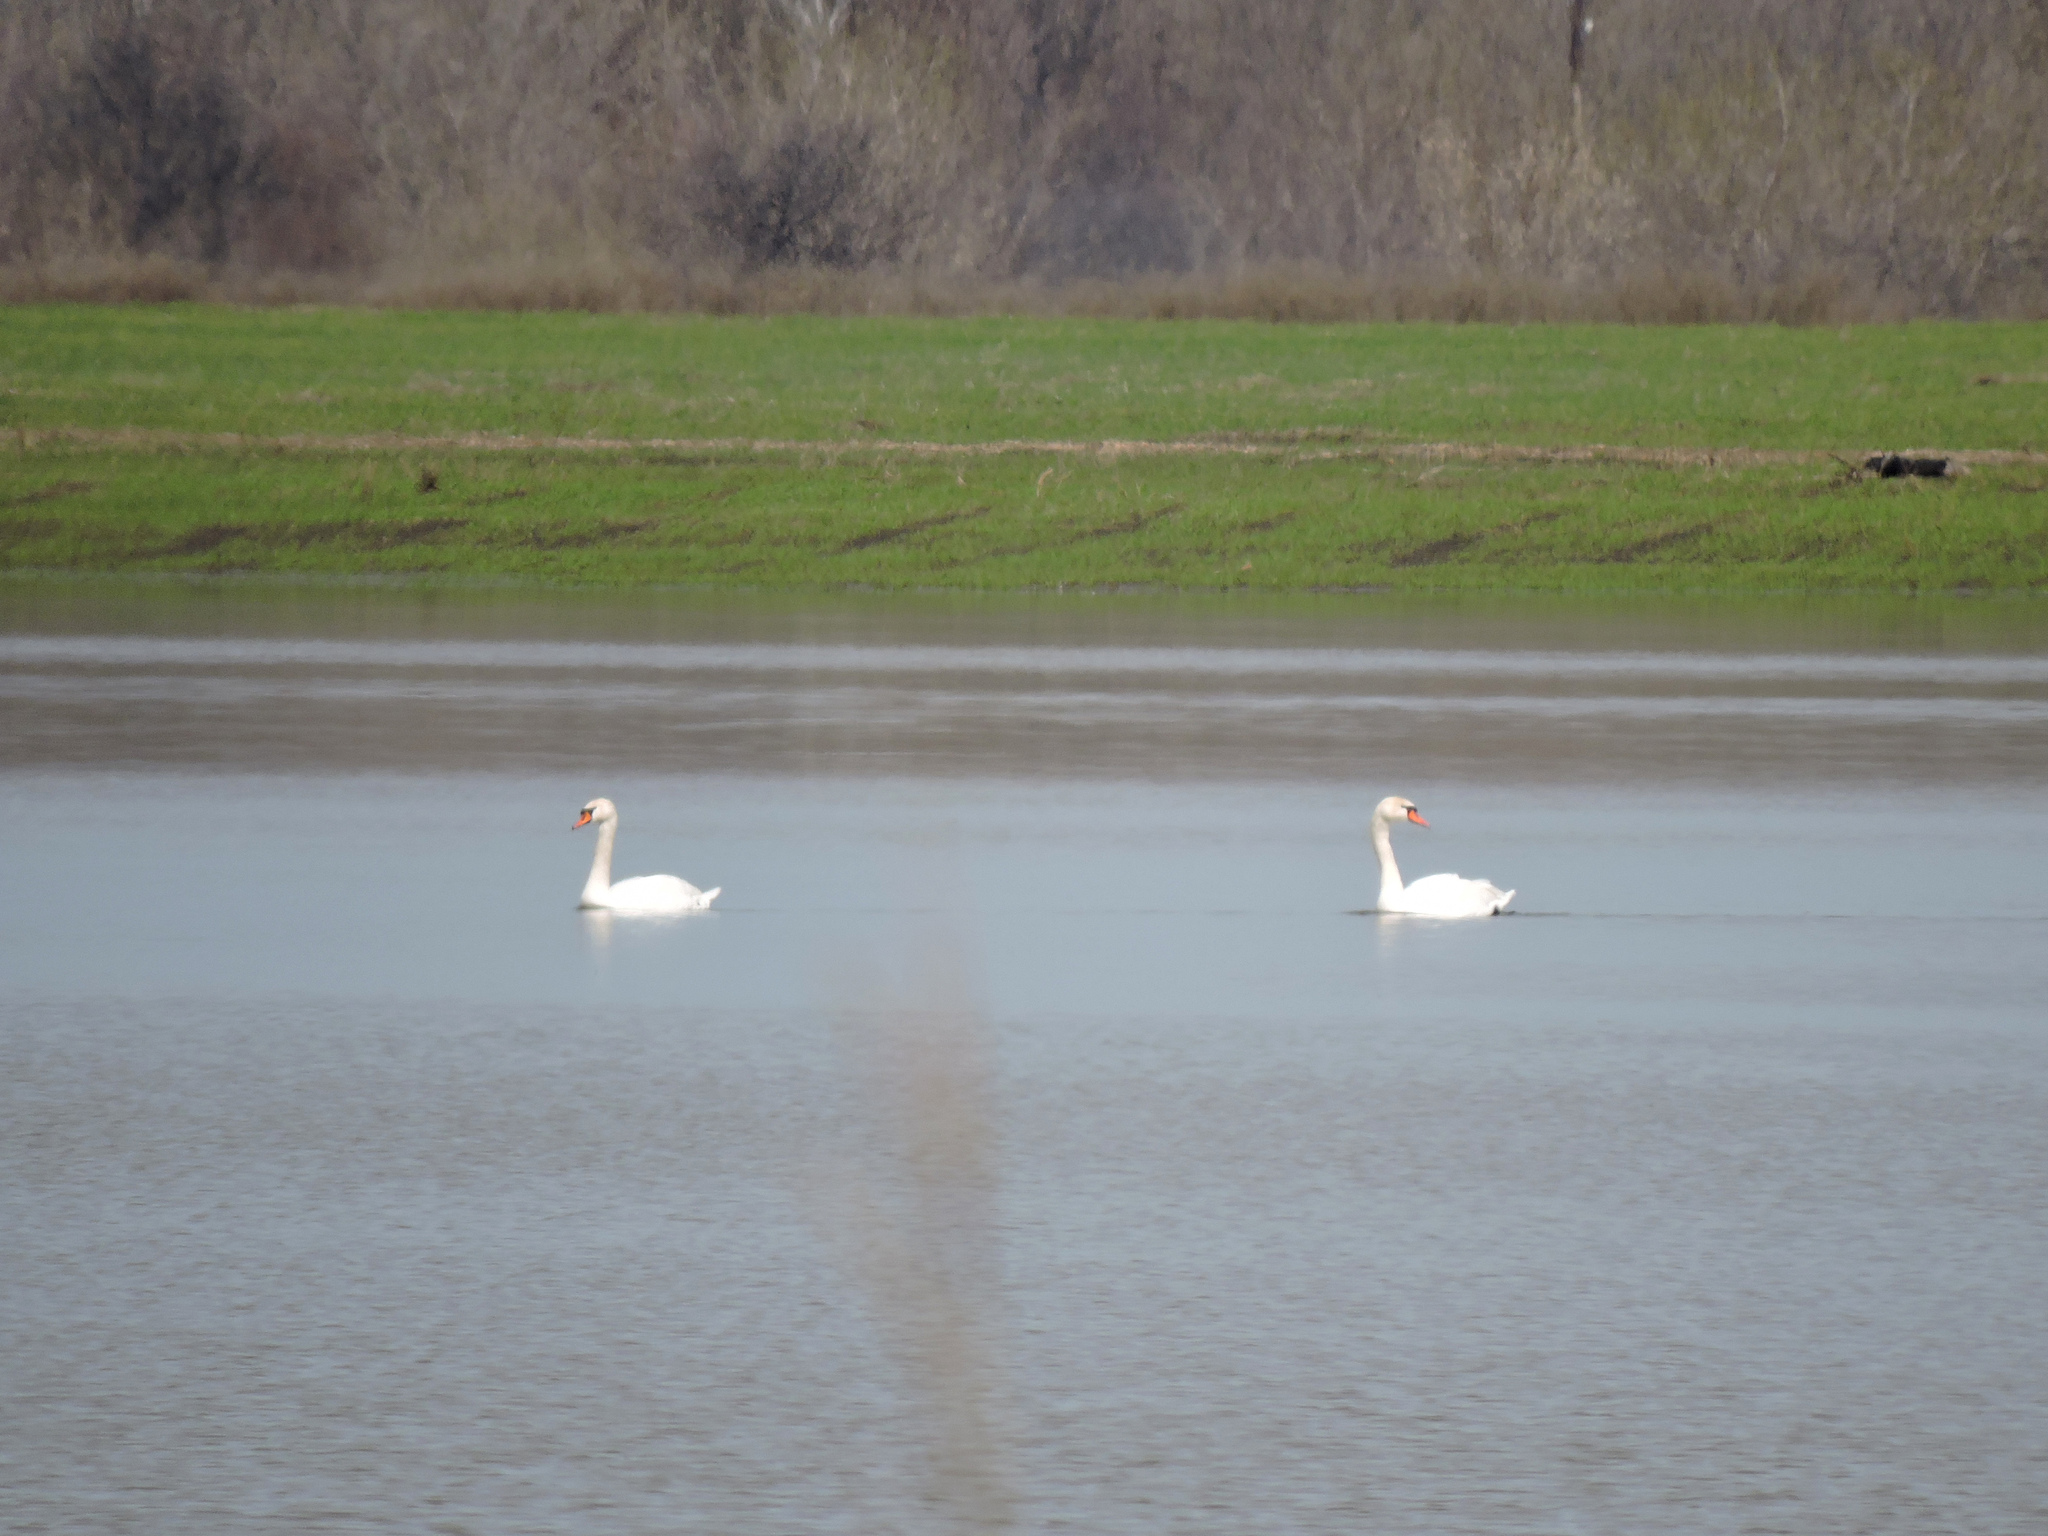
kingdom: Animalia
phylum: Chordata
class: Aves
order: Anseriformes
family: Anatidae
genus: Cygnus
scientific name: Cygnus olor
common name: Mute swan
